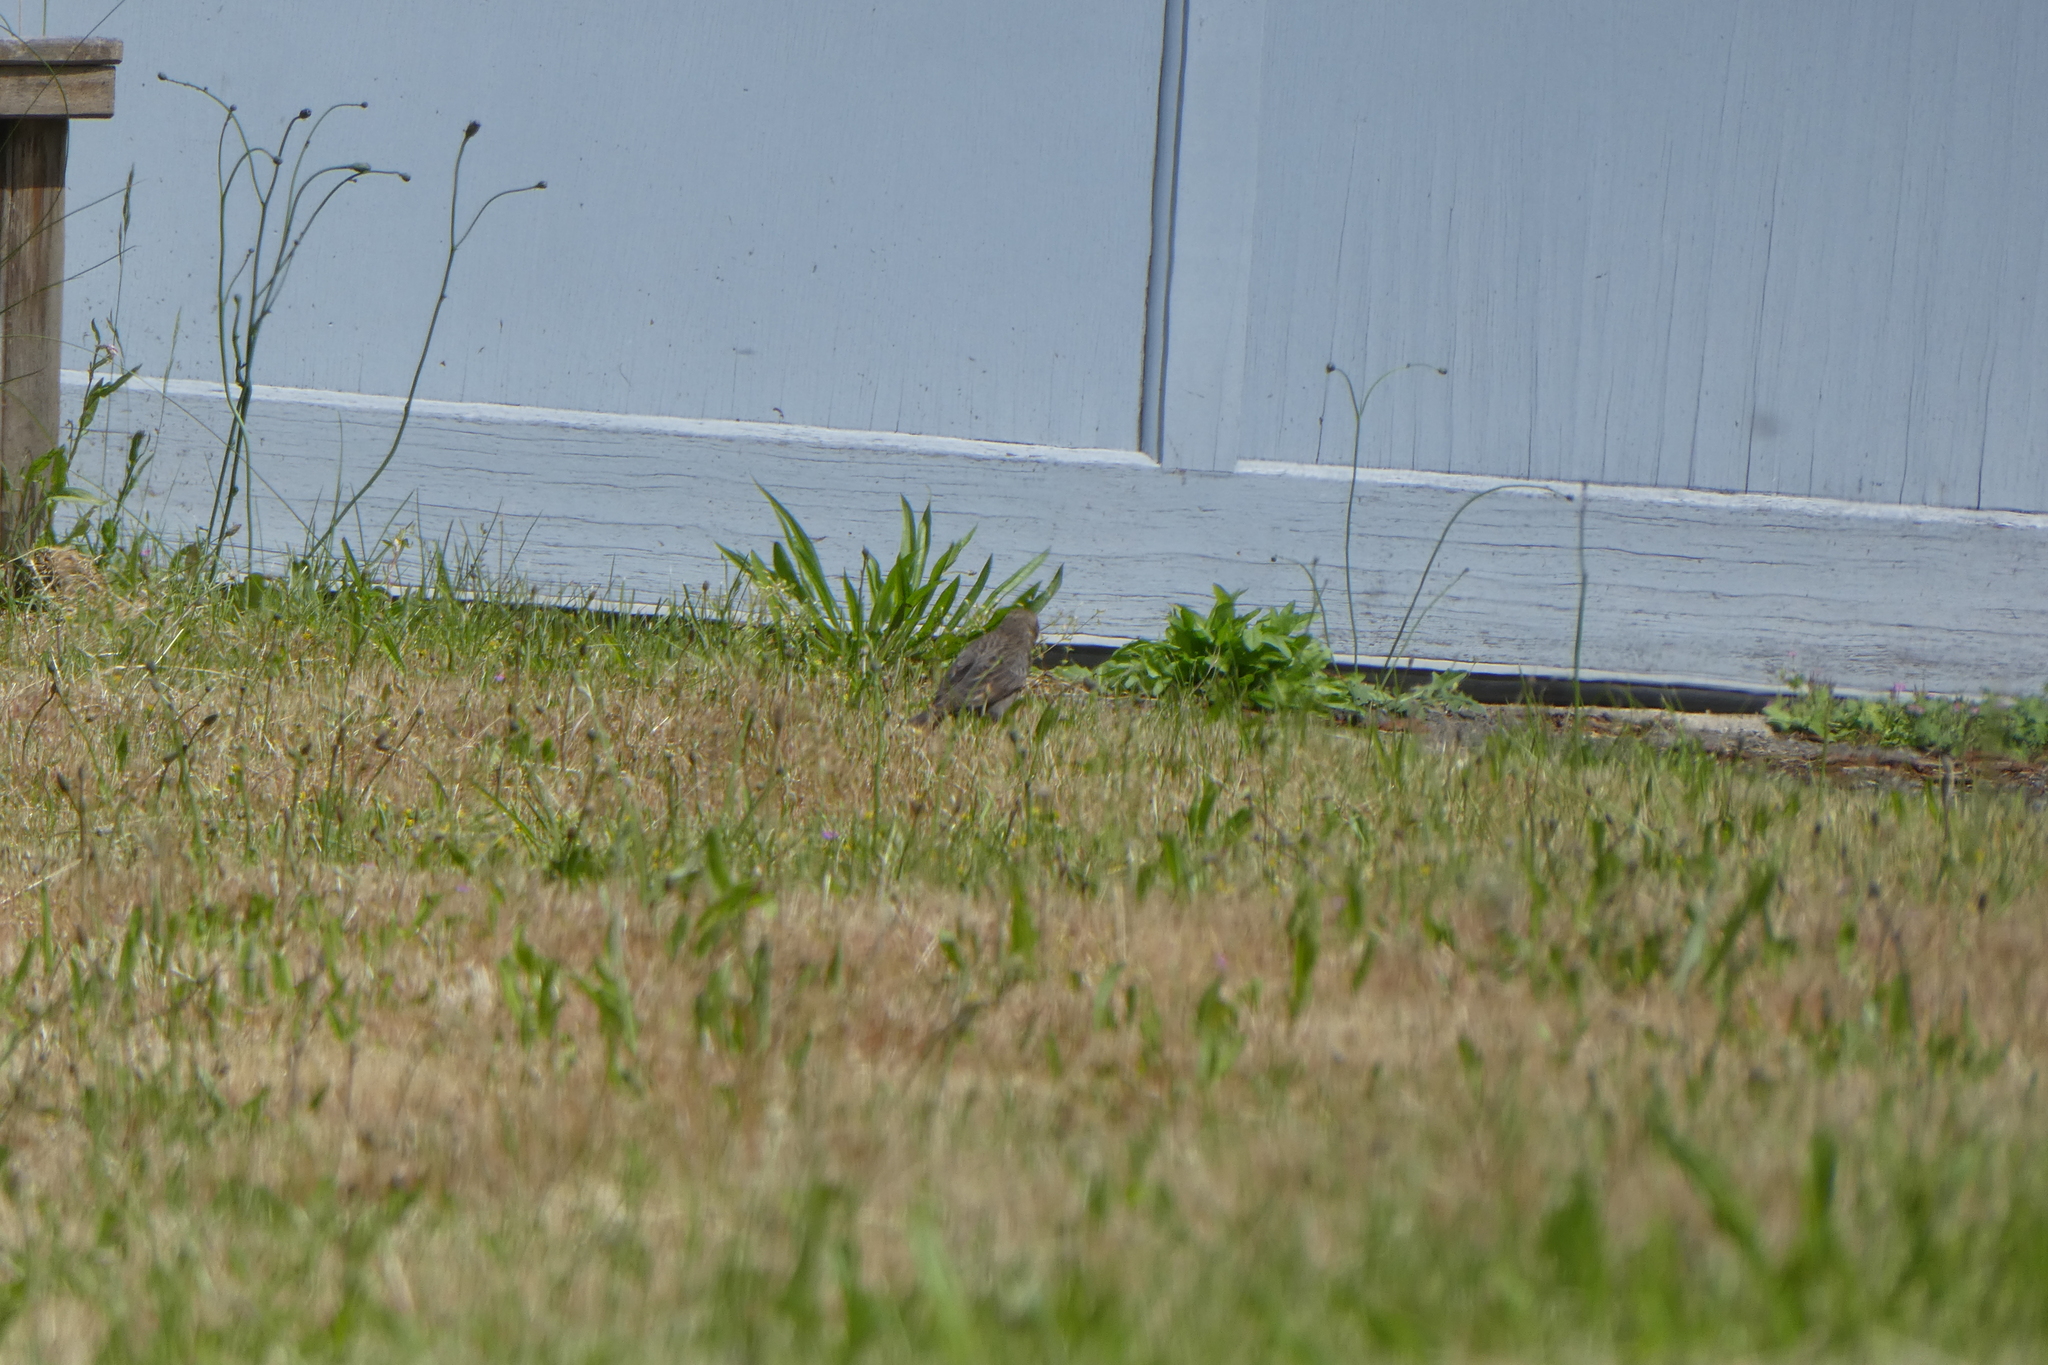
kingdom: Animalia
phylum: Chordata
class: Aves
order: Passeriformes
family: Icteridae
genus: Molothrus
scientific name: Molothrus ater
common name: Brown-headed cowbird
